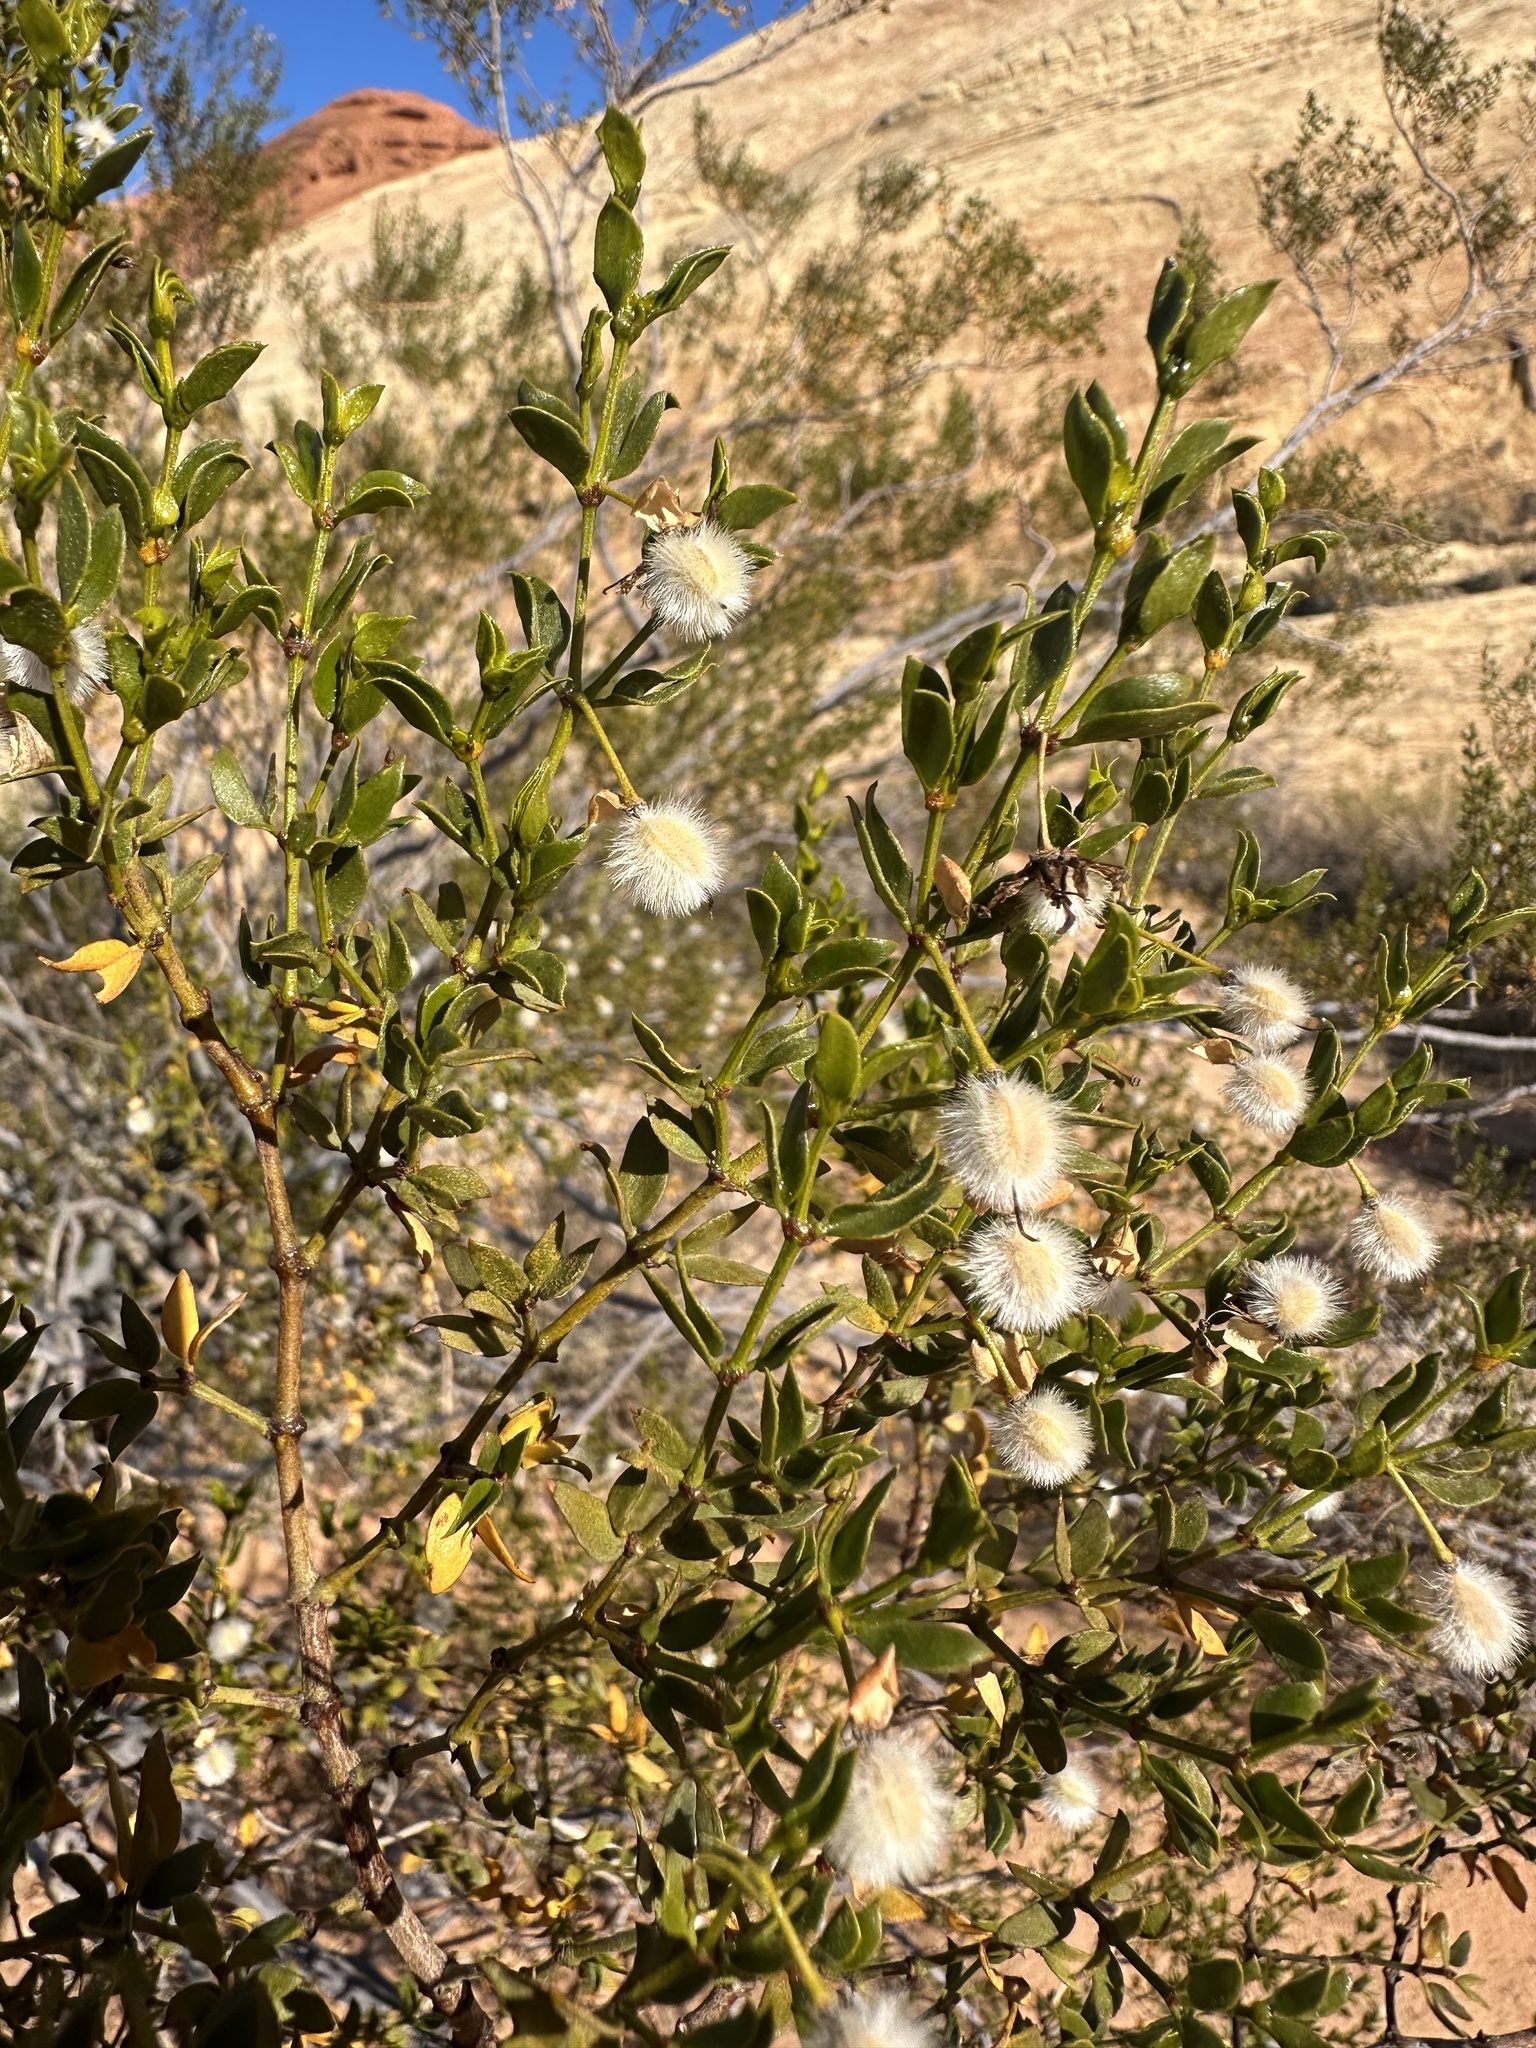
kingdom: Plantae
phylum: Tracheophyta
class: Magnoliopsida
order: Zygophyllales
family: Zygophyllaceae
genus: Larrea
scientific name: Larrea tridentata
